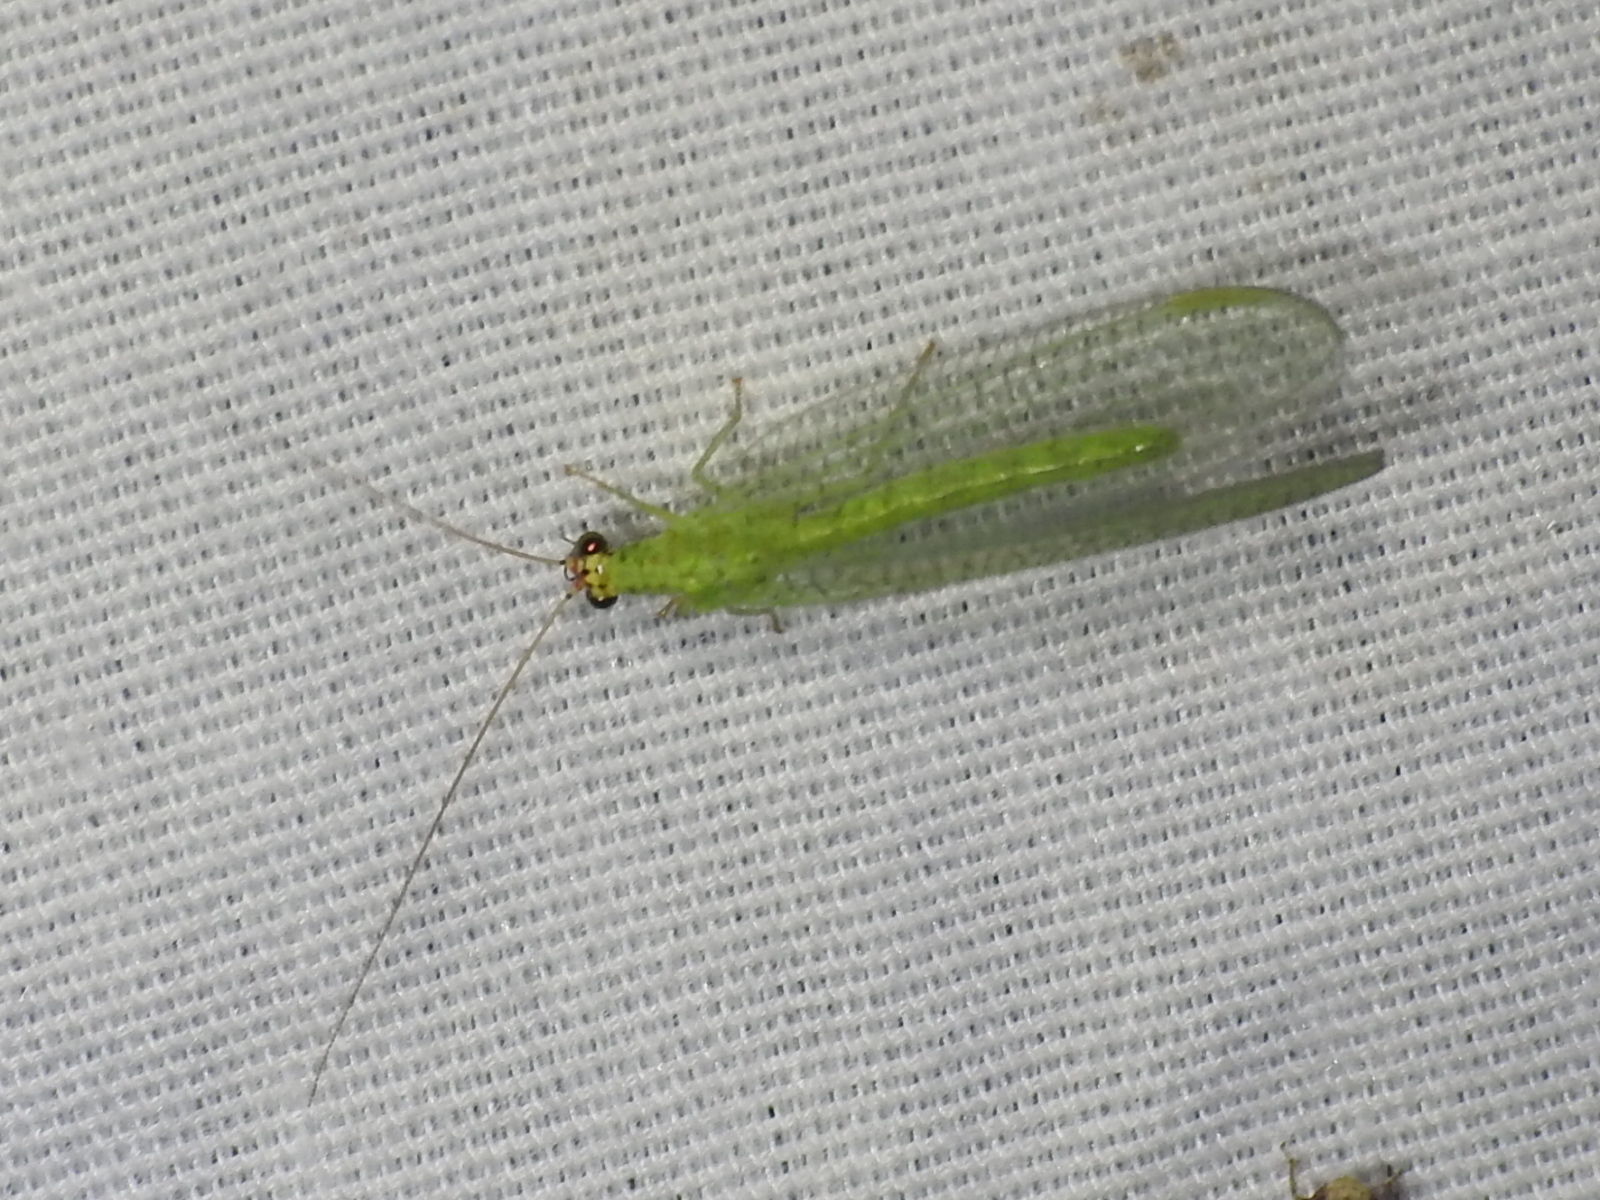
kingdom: Animalia
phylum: Arthropoda
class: Insecta
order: Neuroptera
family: Chrysopidae
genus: Chrysopa
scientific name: Chrysopa oculata
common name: Golden-eyed lacewing
